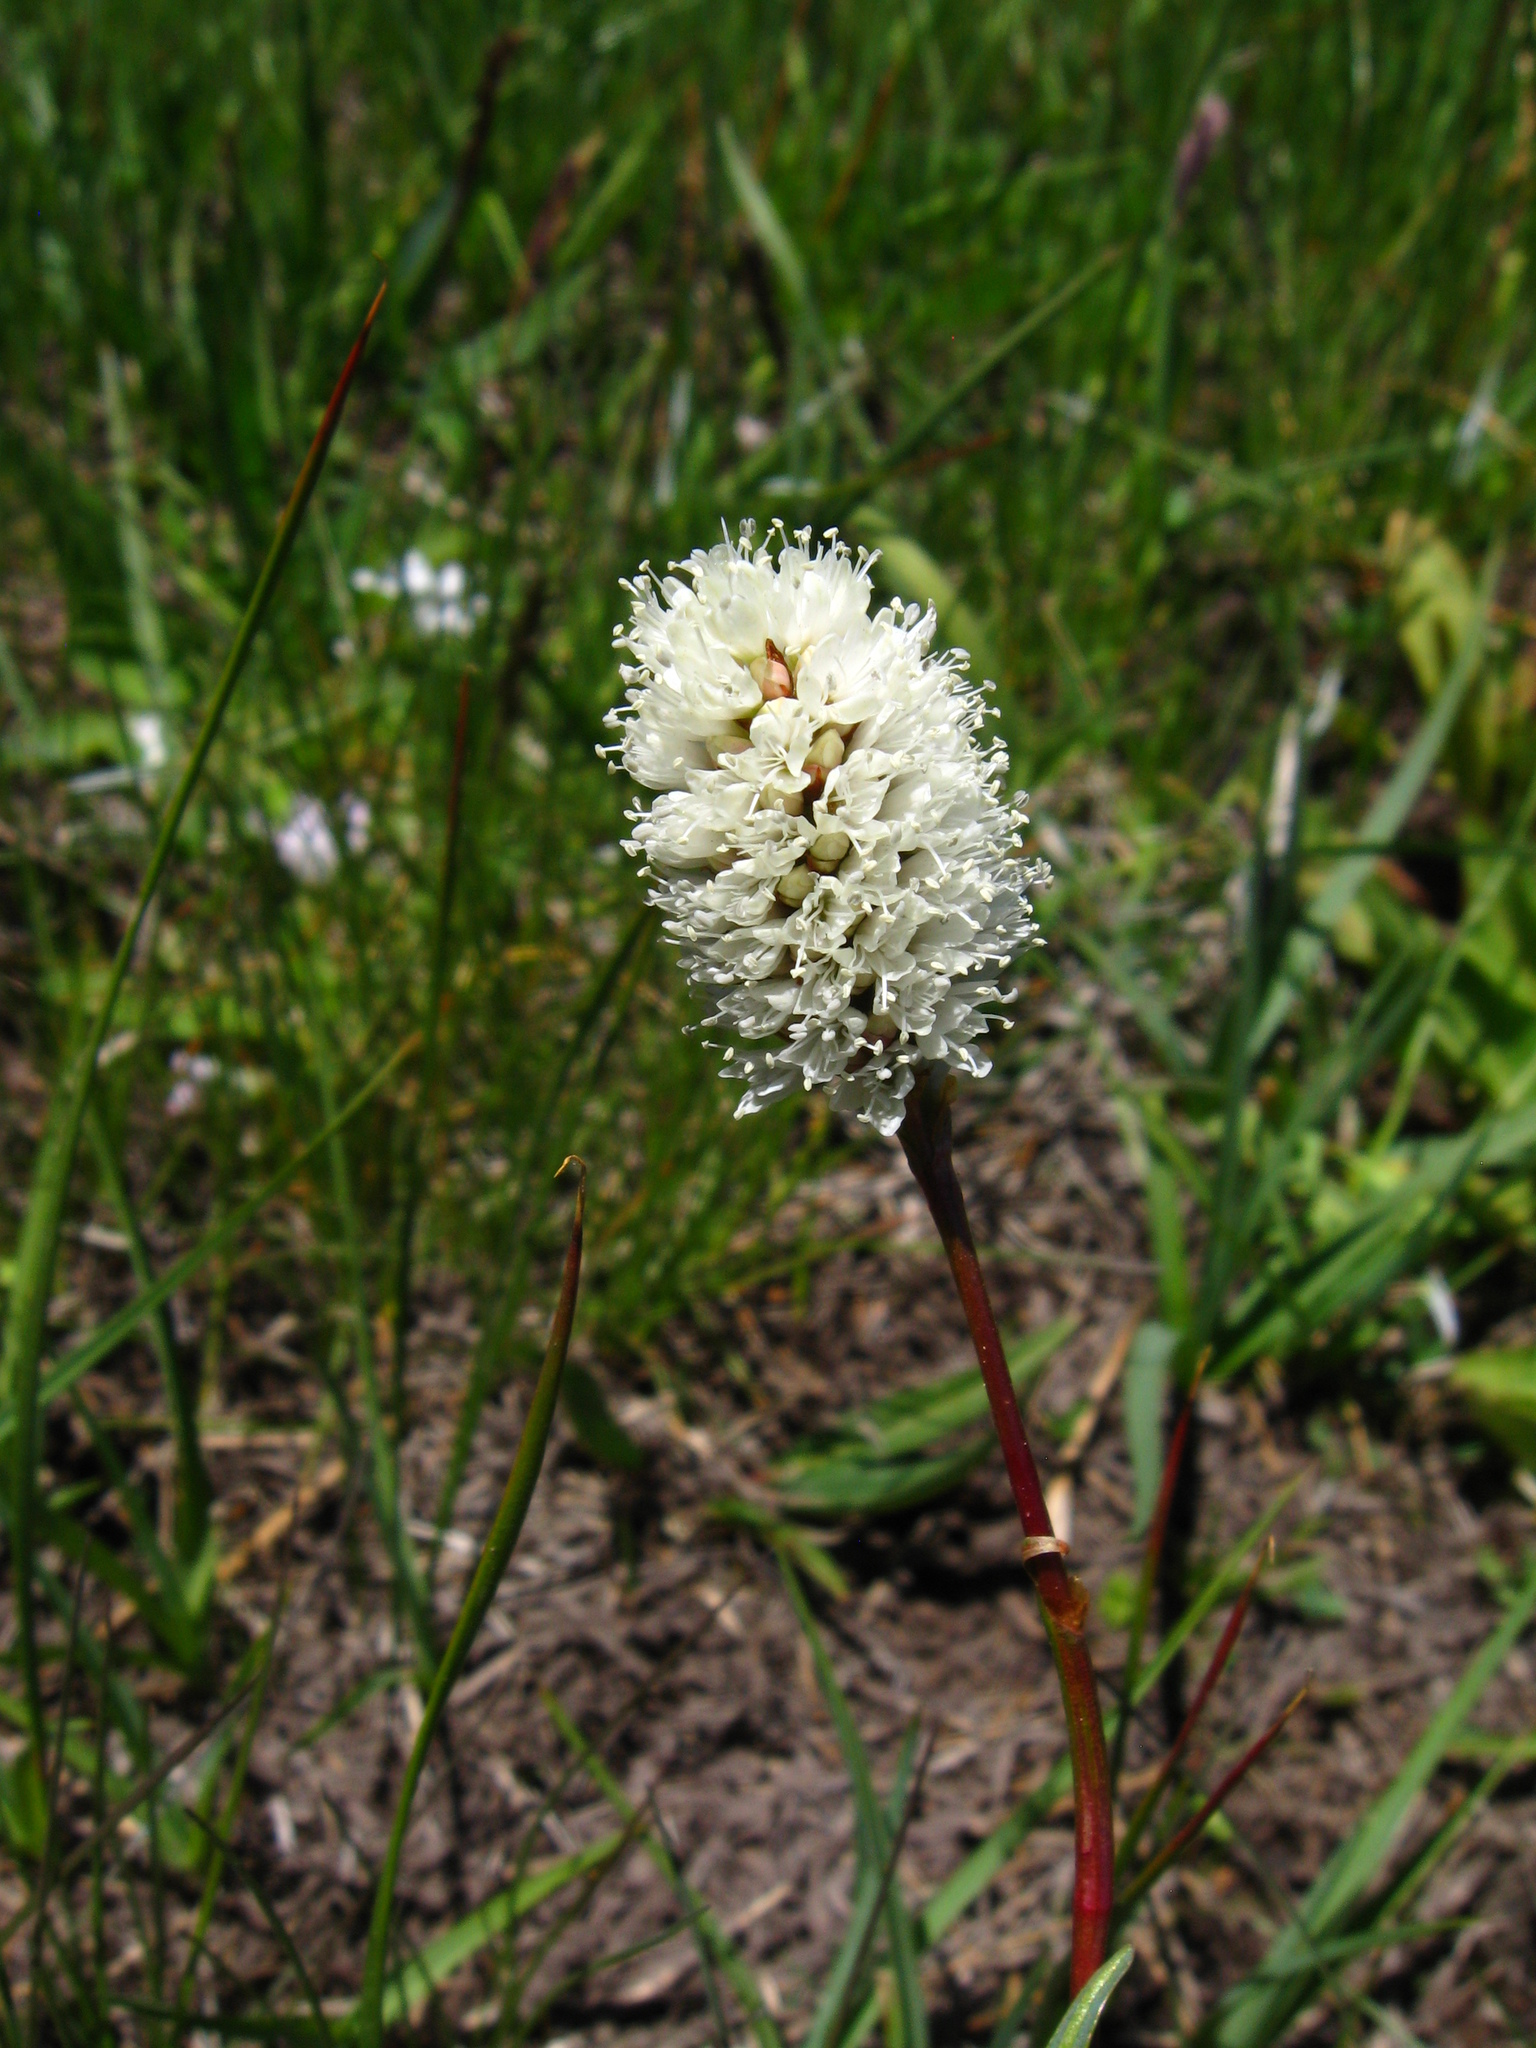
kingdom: Plantae
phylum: Tracheophyta
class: Magnoliopsida
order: Caryophyllales
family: Polygonaceae
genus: Bistorta
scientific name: Bistorta bistortoides
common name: American bistort
